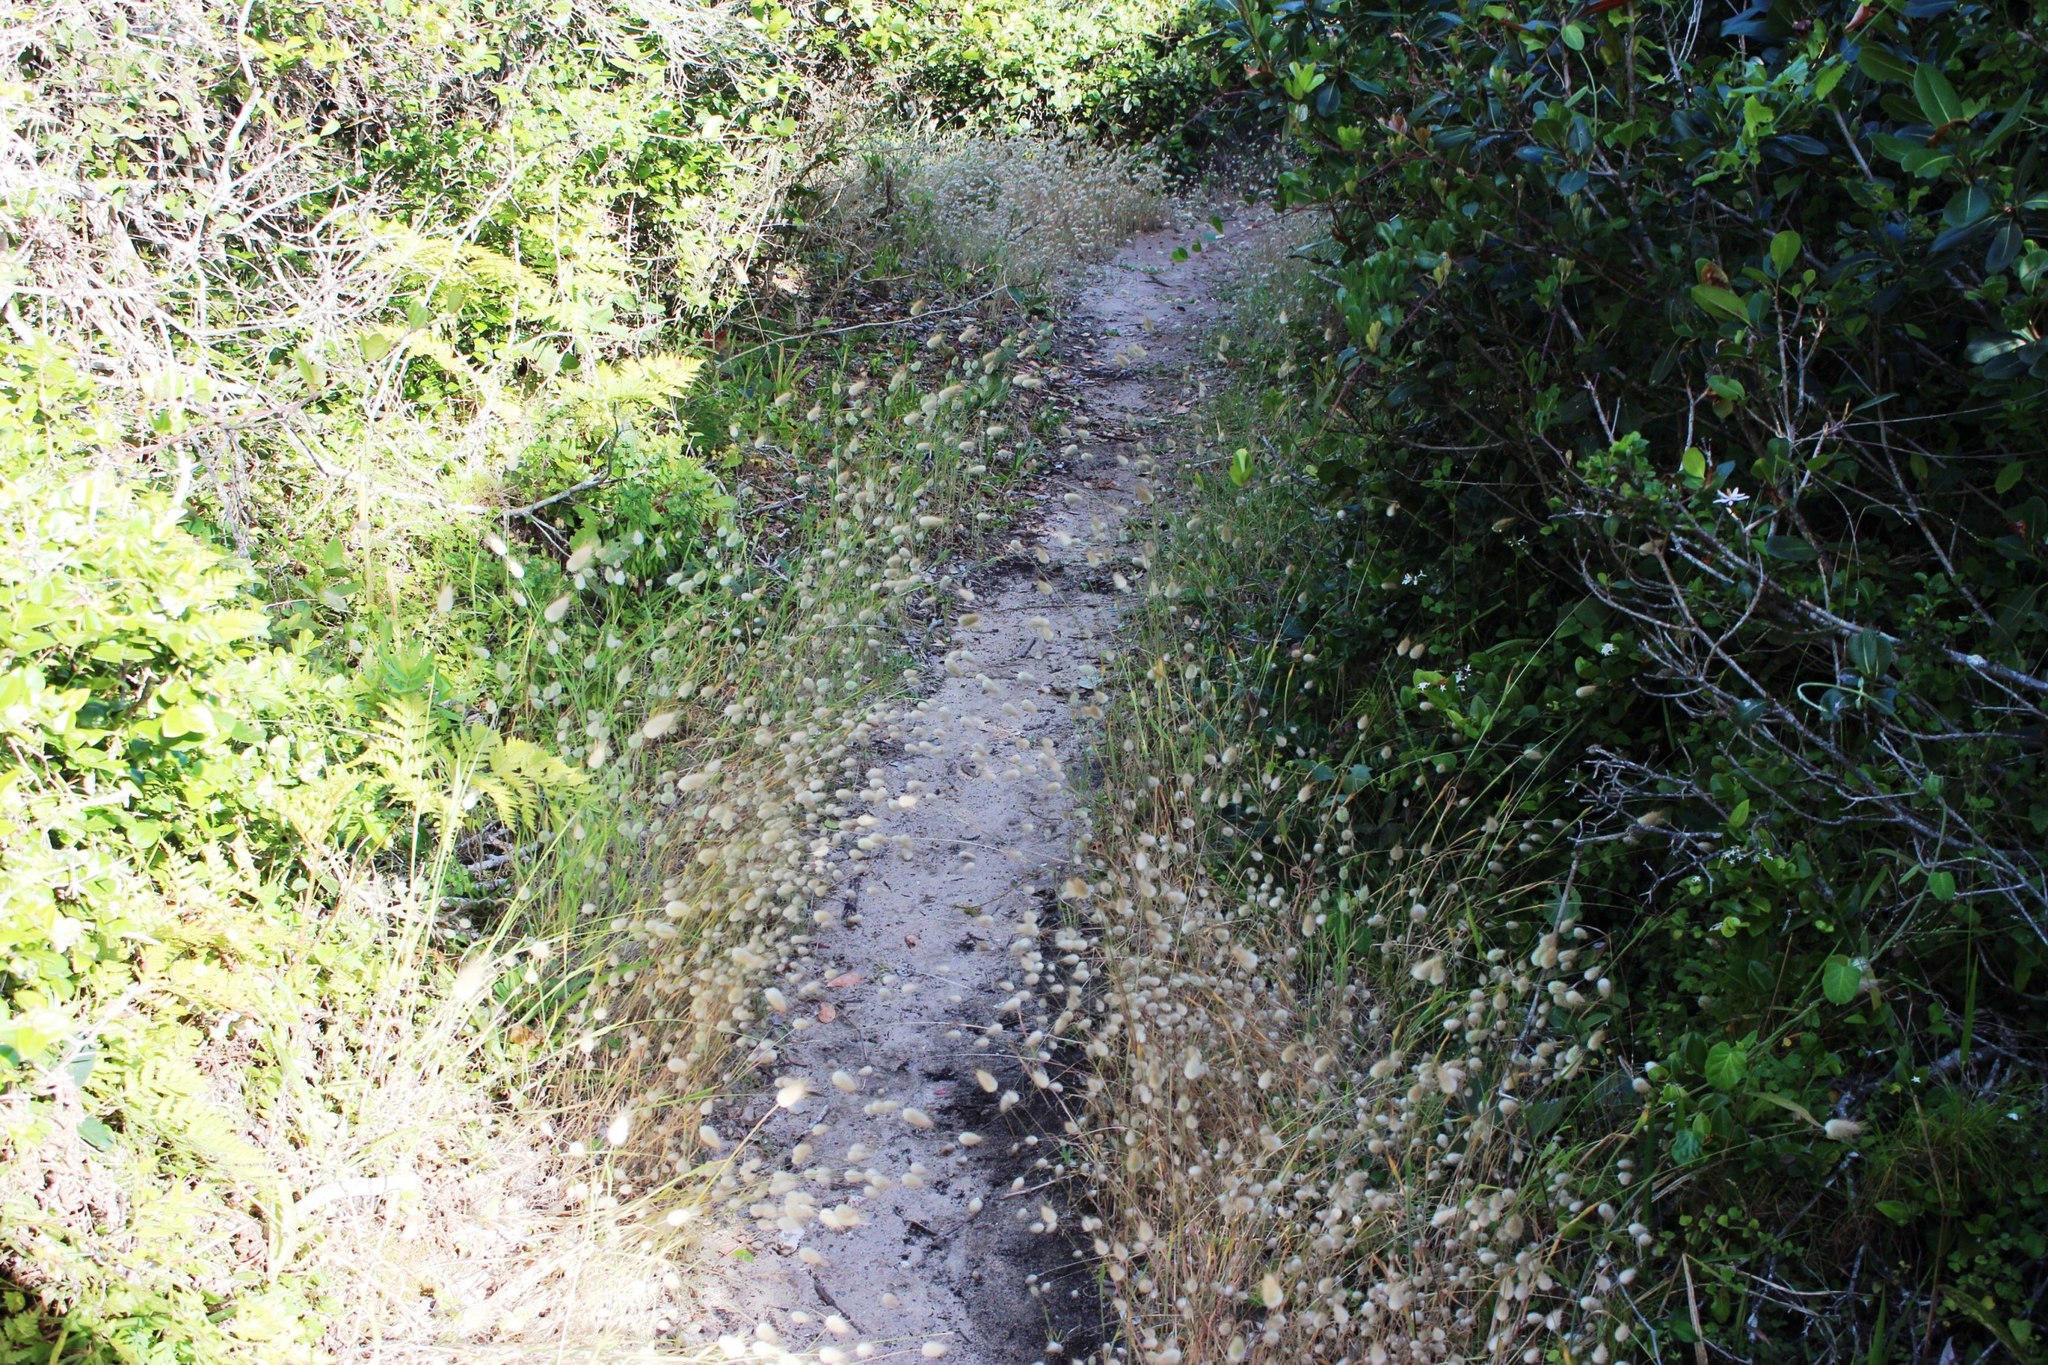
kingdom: Plantae
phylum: Tracheophyta
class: Liliopsida
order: Poales
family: Poaceae
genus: Lagurus
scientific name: Lagurus ovatus
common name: Hare's-tail
